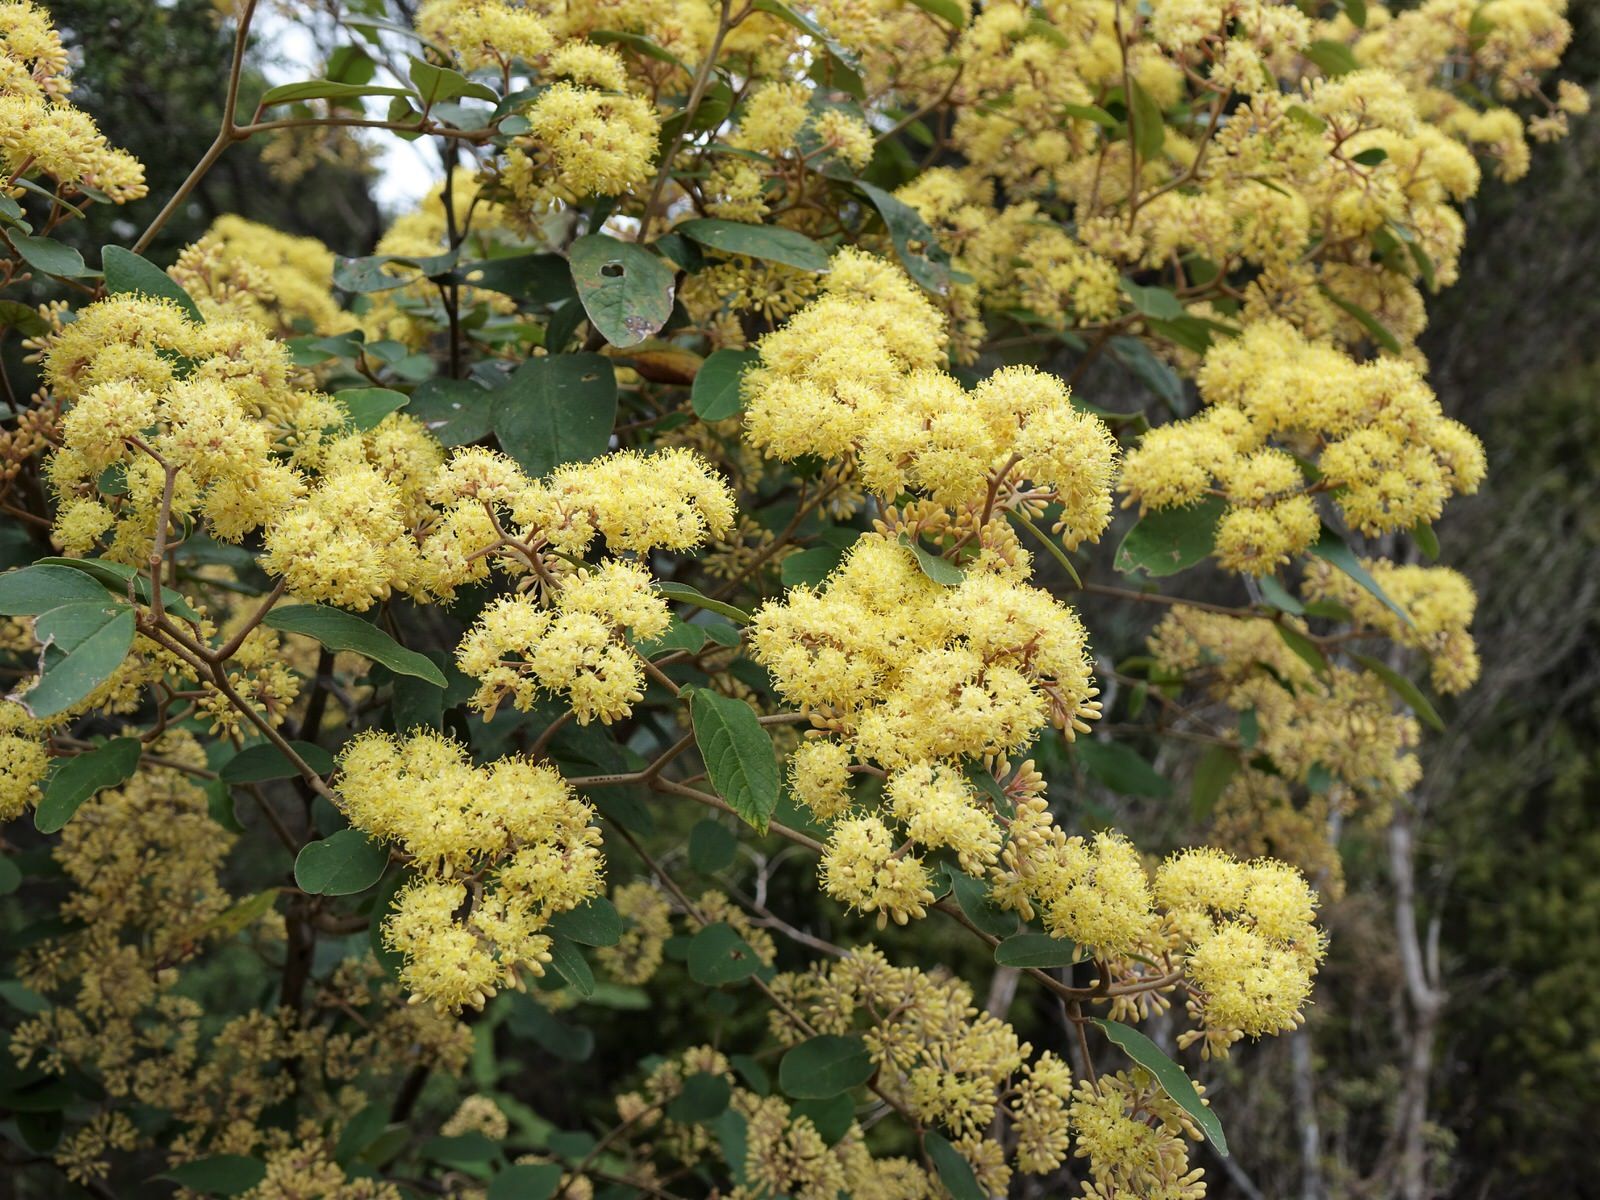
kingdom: Plantae
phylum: Tracheophyta
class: Magnoliopsida
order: Rosales
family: Rhamnaceae
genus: Pomaderris
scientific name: Pomaderris kumeraho
